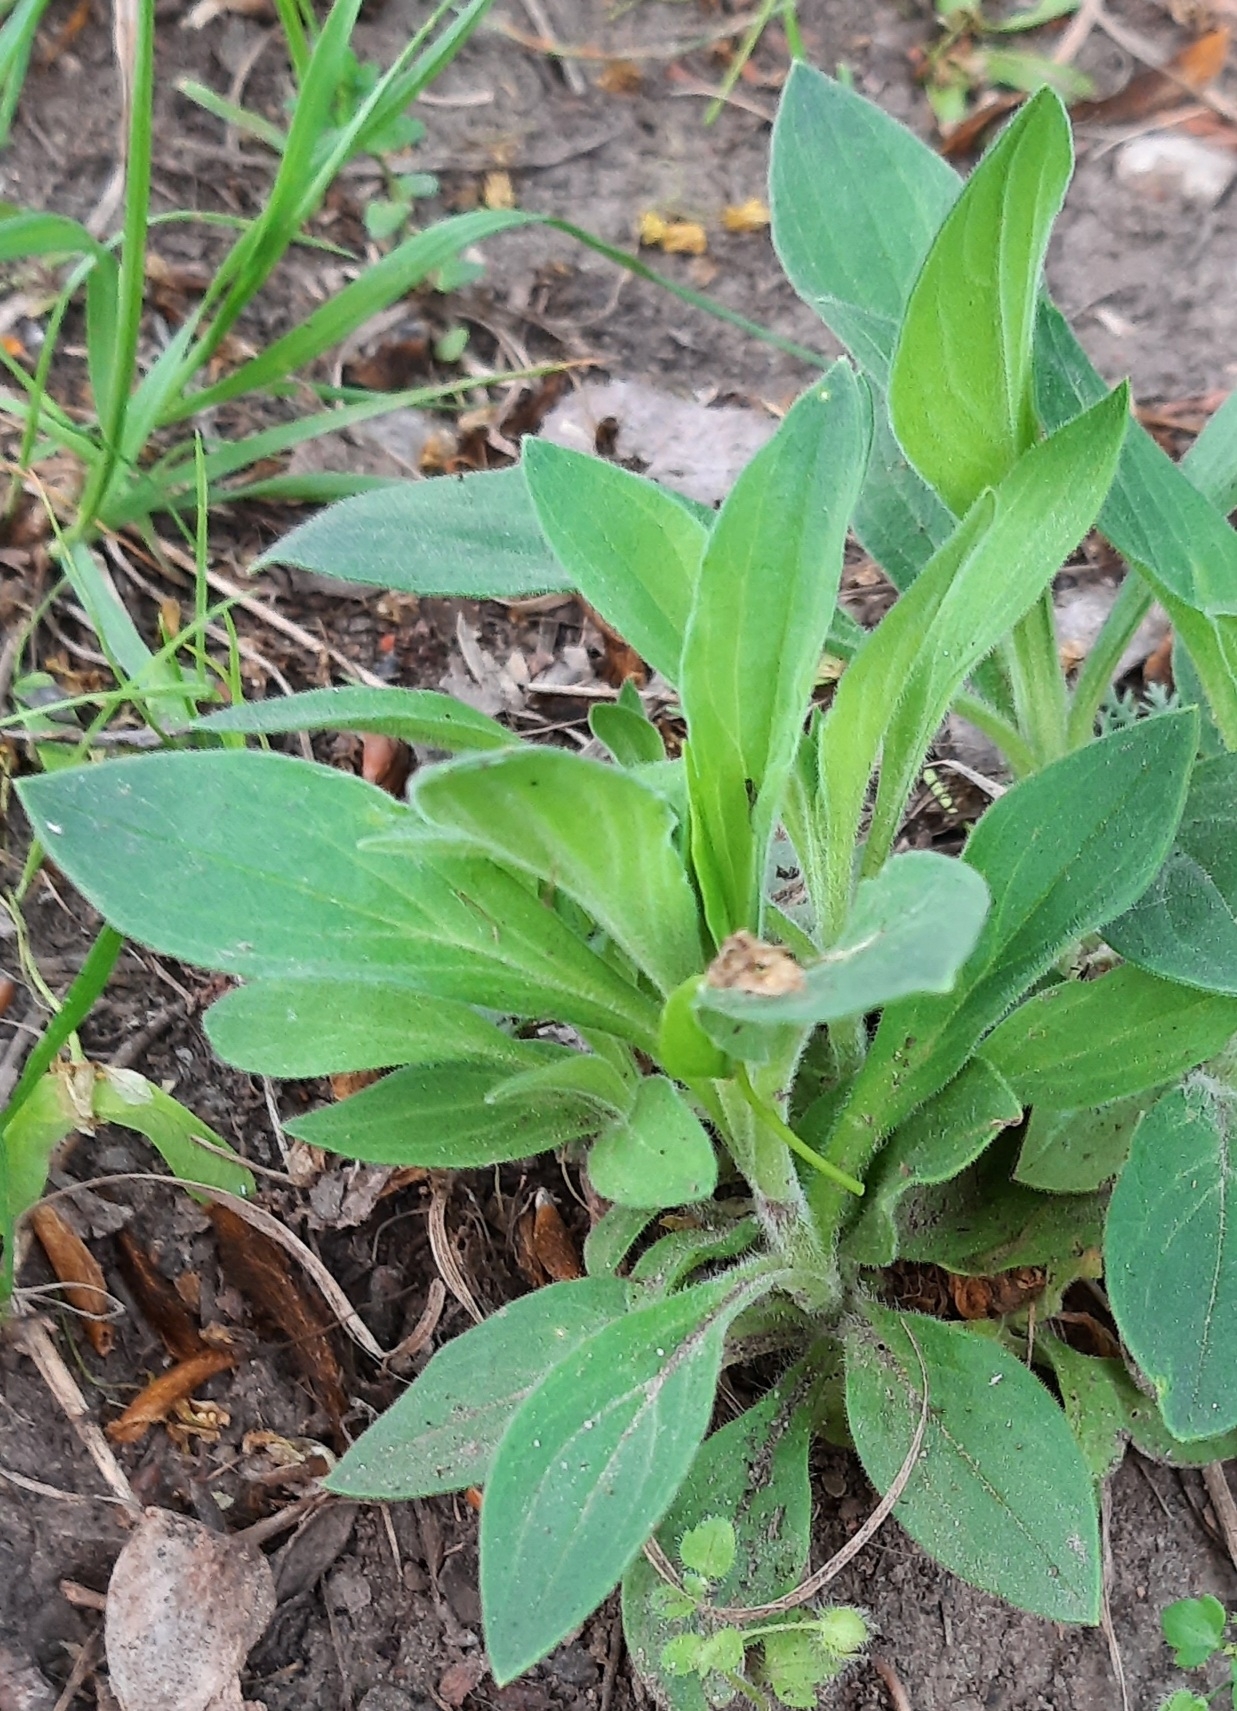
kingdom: Plantae
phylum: Tracheophyta
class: Magnoliopsida
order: Caryophyllales
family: Caryophyllaceae
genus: Silene
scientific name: Silene latifolia
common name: White campion
